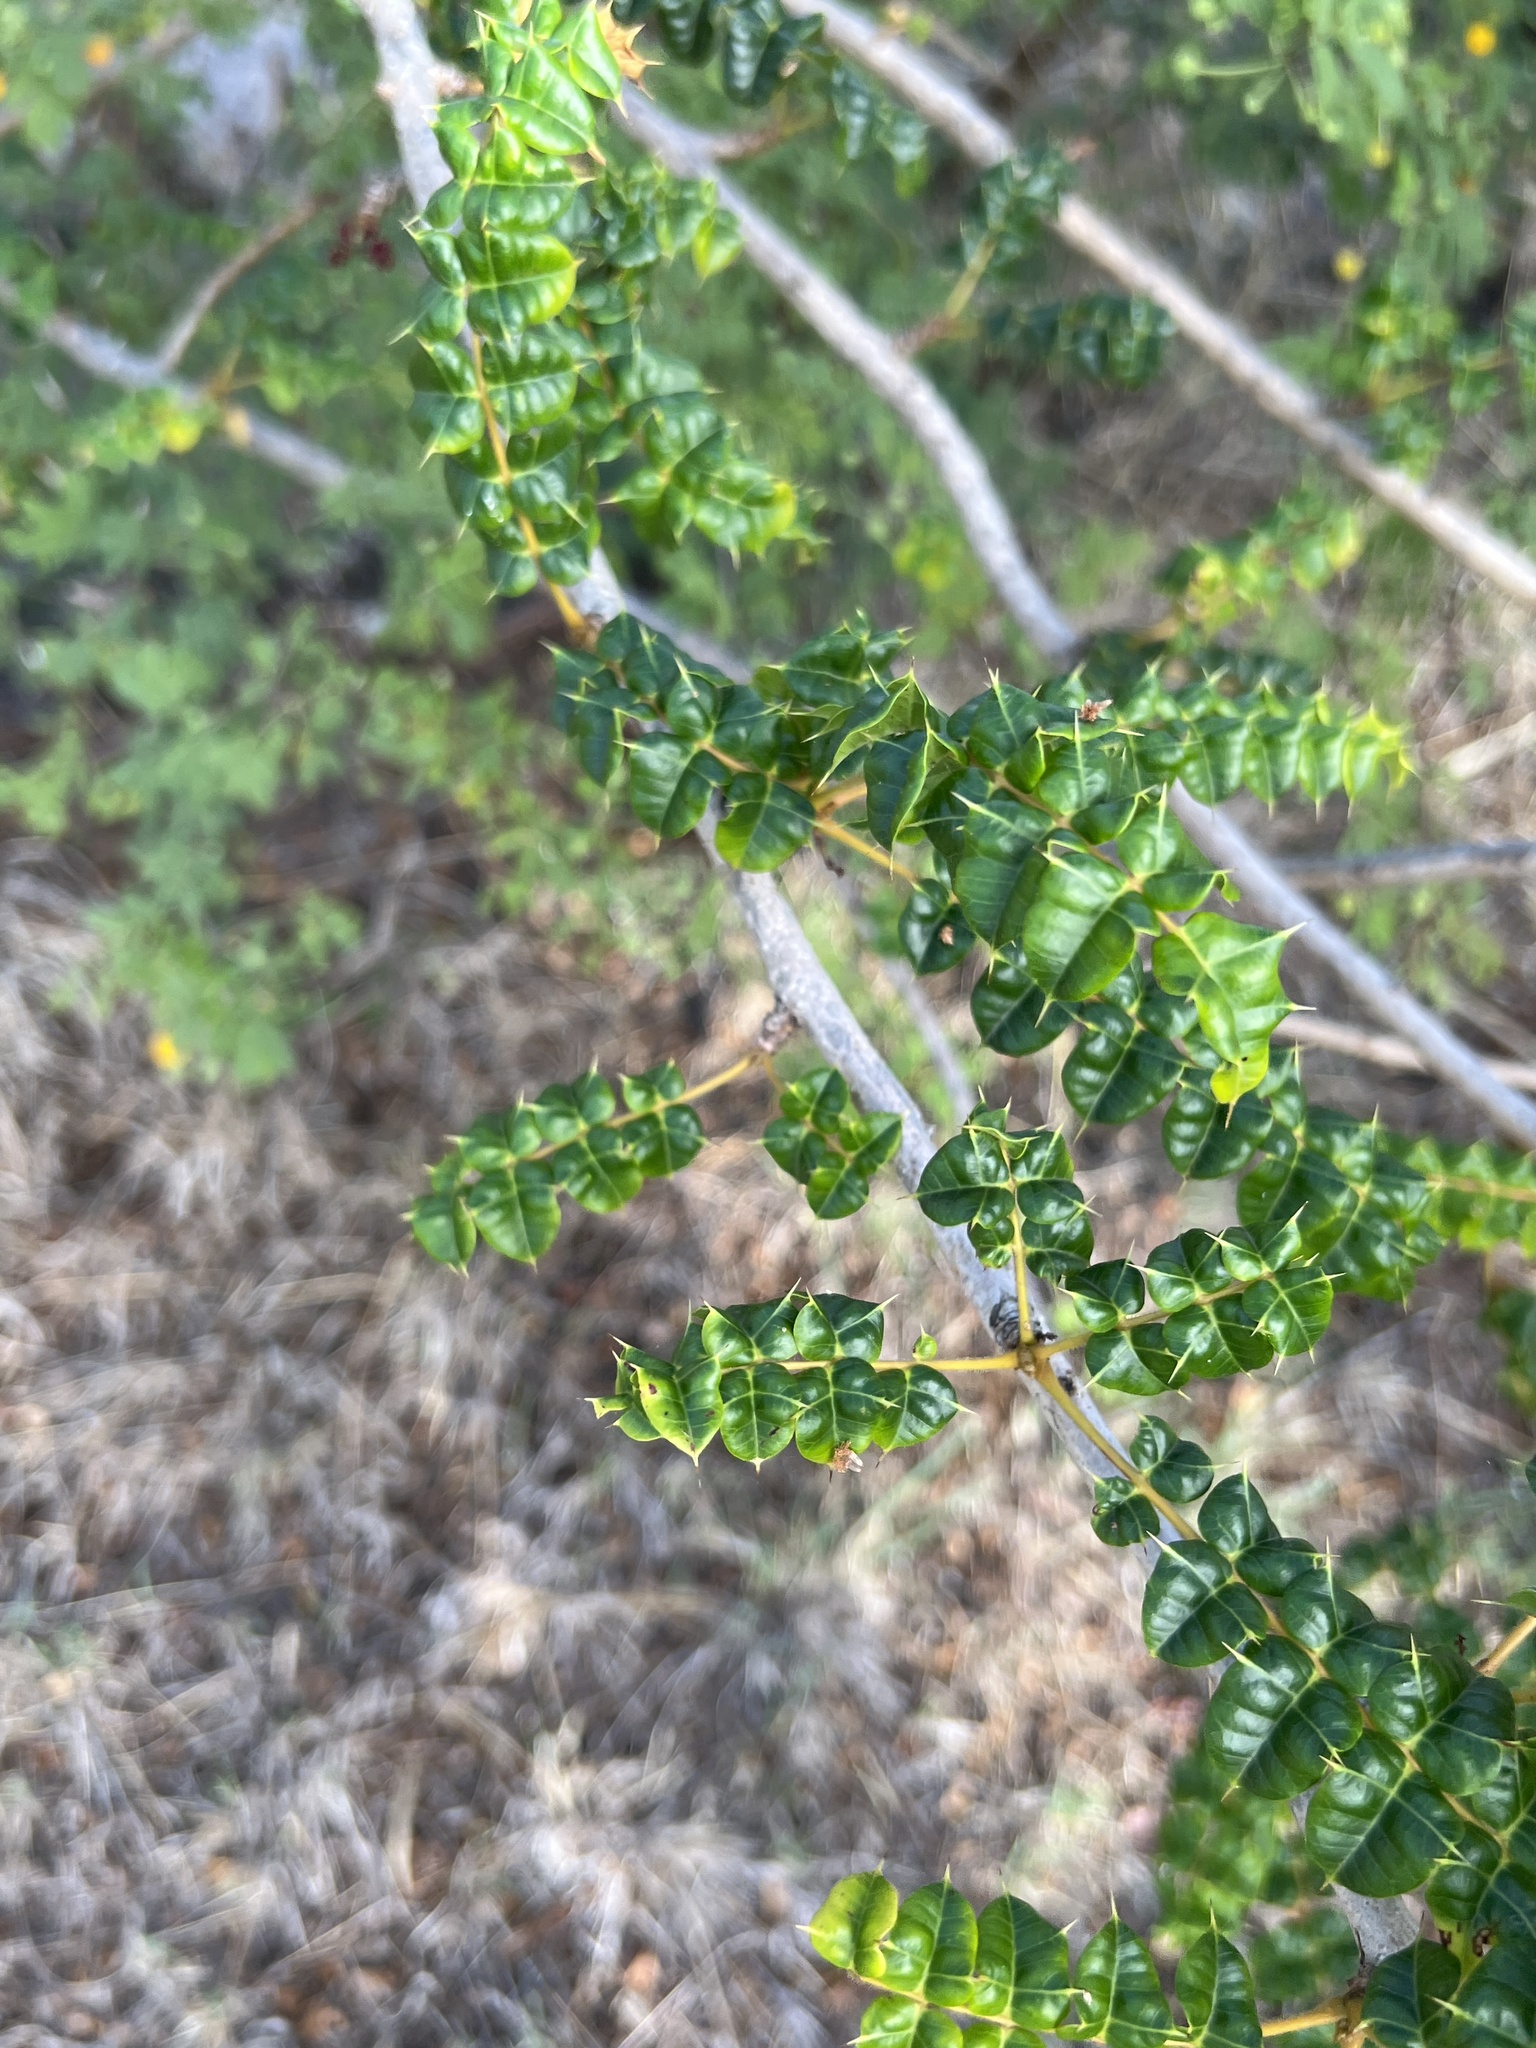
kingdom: Plantae
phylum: Tracheophyta
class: Magnoliopsida
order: Sapindales
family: Anacardiaceae
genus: Comocladia
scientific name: Comocladia dodonaea
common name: Poison ash
